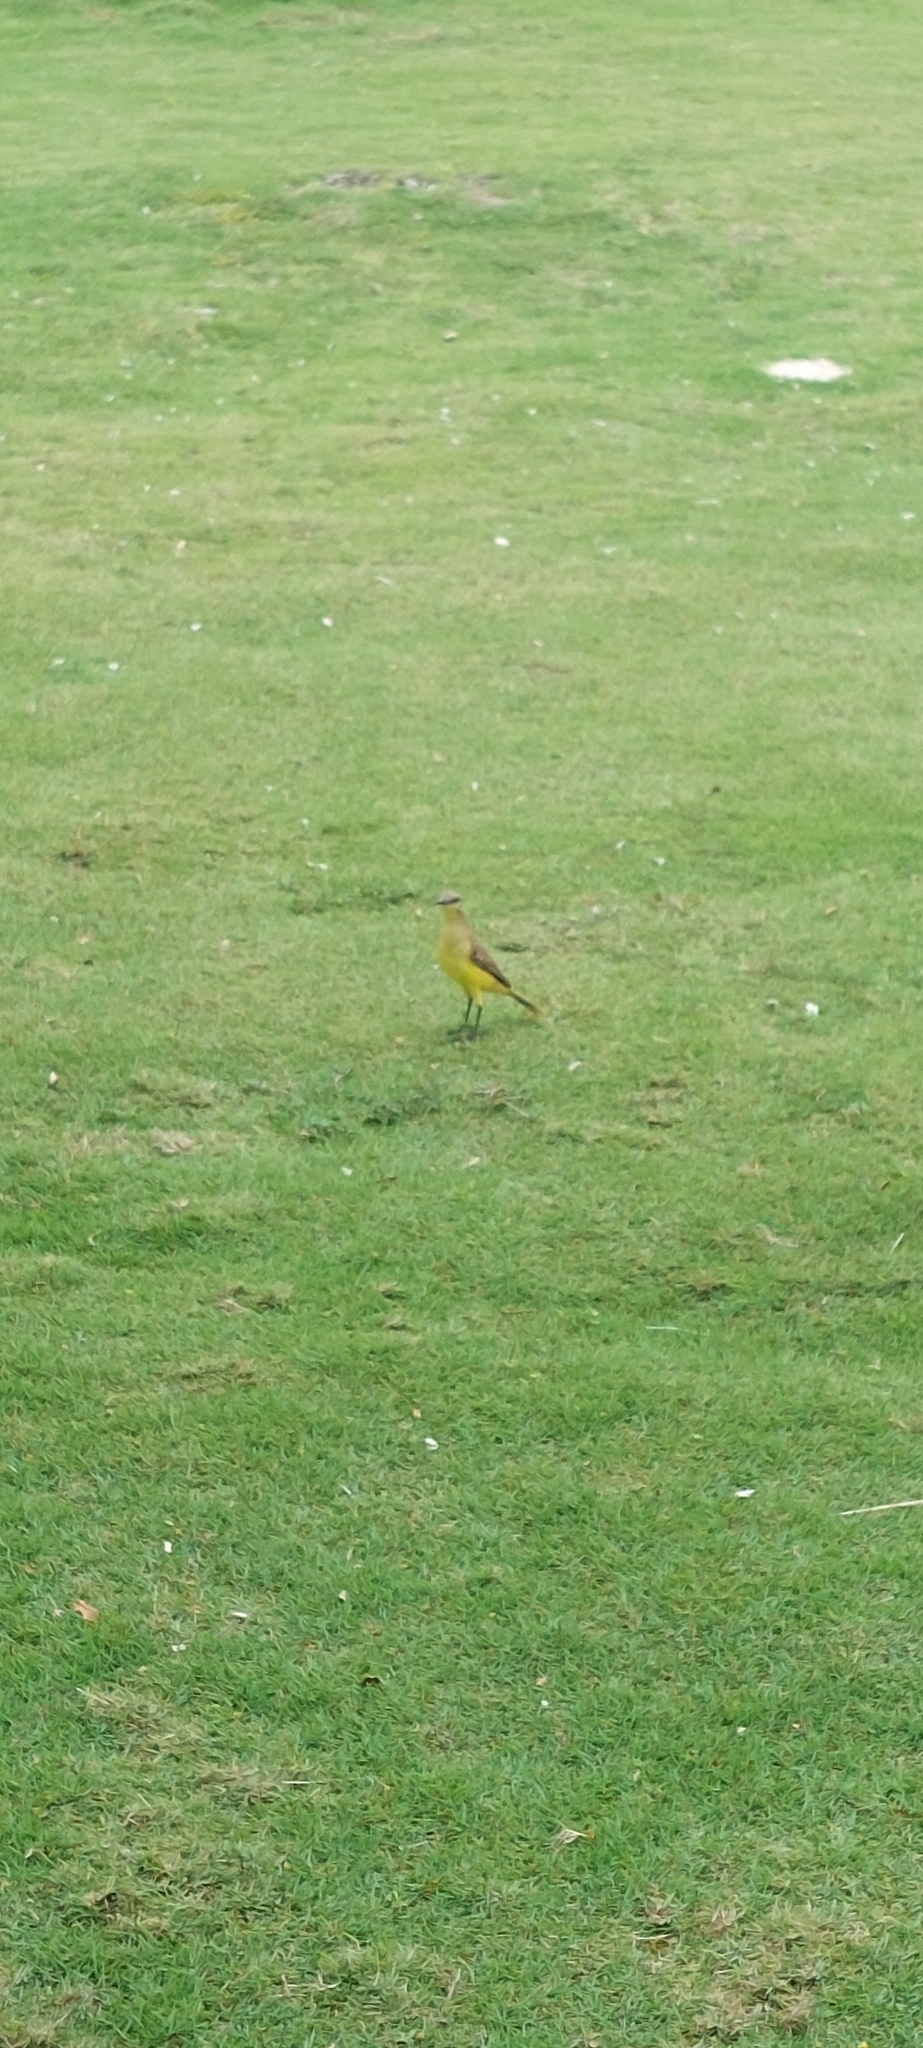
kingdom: Animalia
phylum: Chordata
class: Aves
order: Passeriformes
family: Tyrannidae
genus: Machetornis
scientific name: Machetornis rixosa
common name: Cattle tyrant
